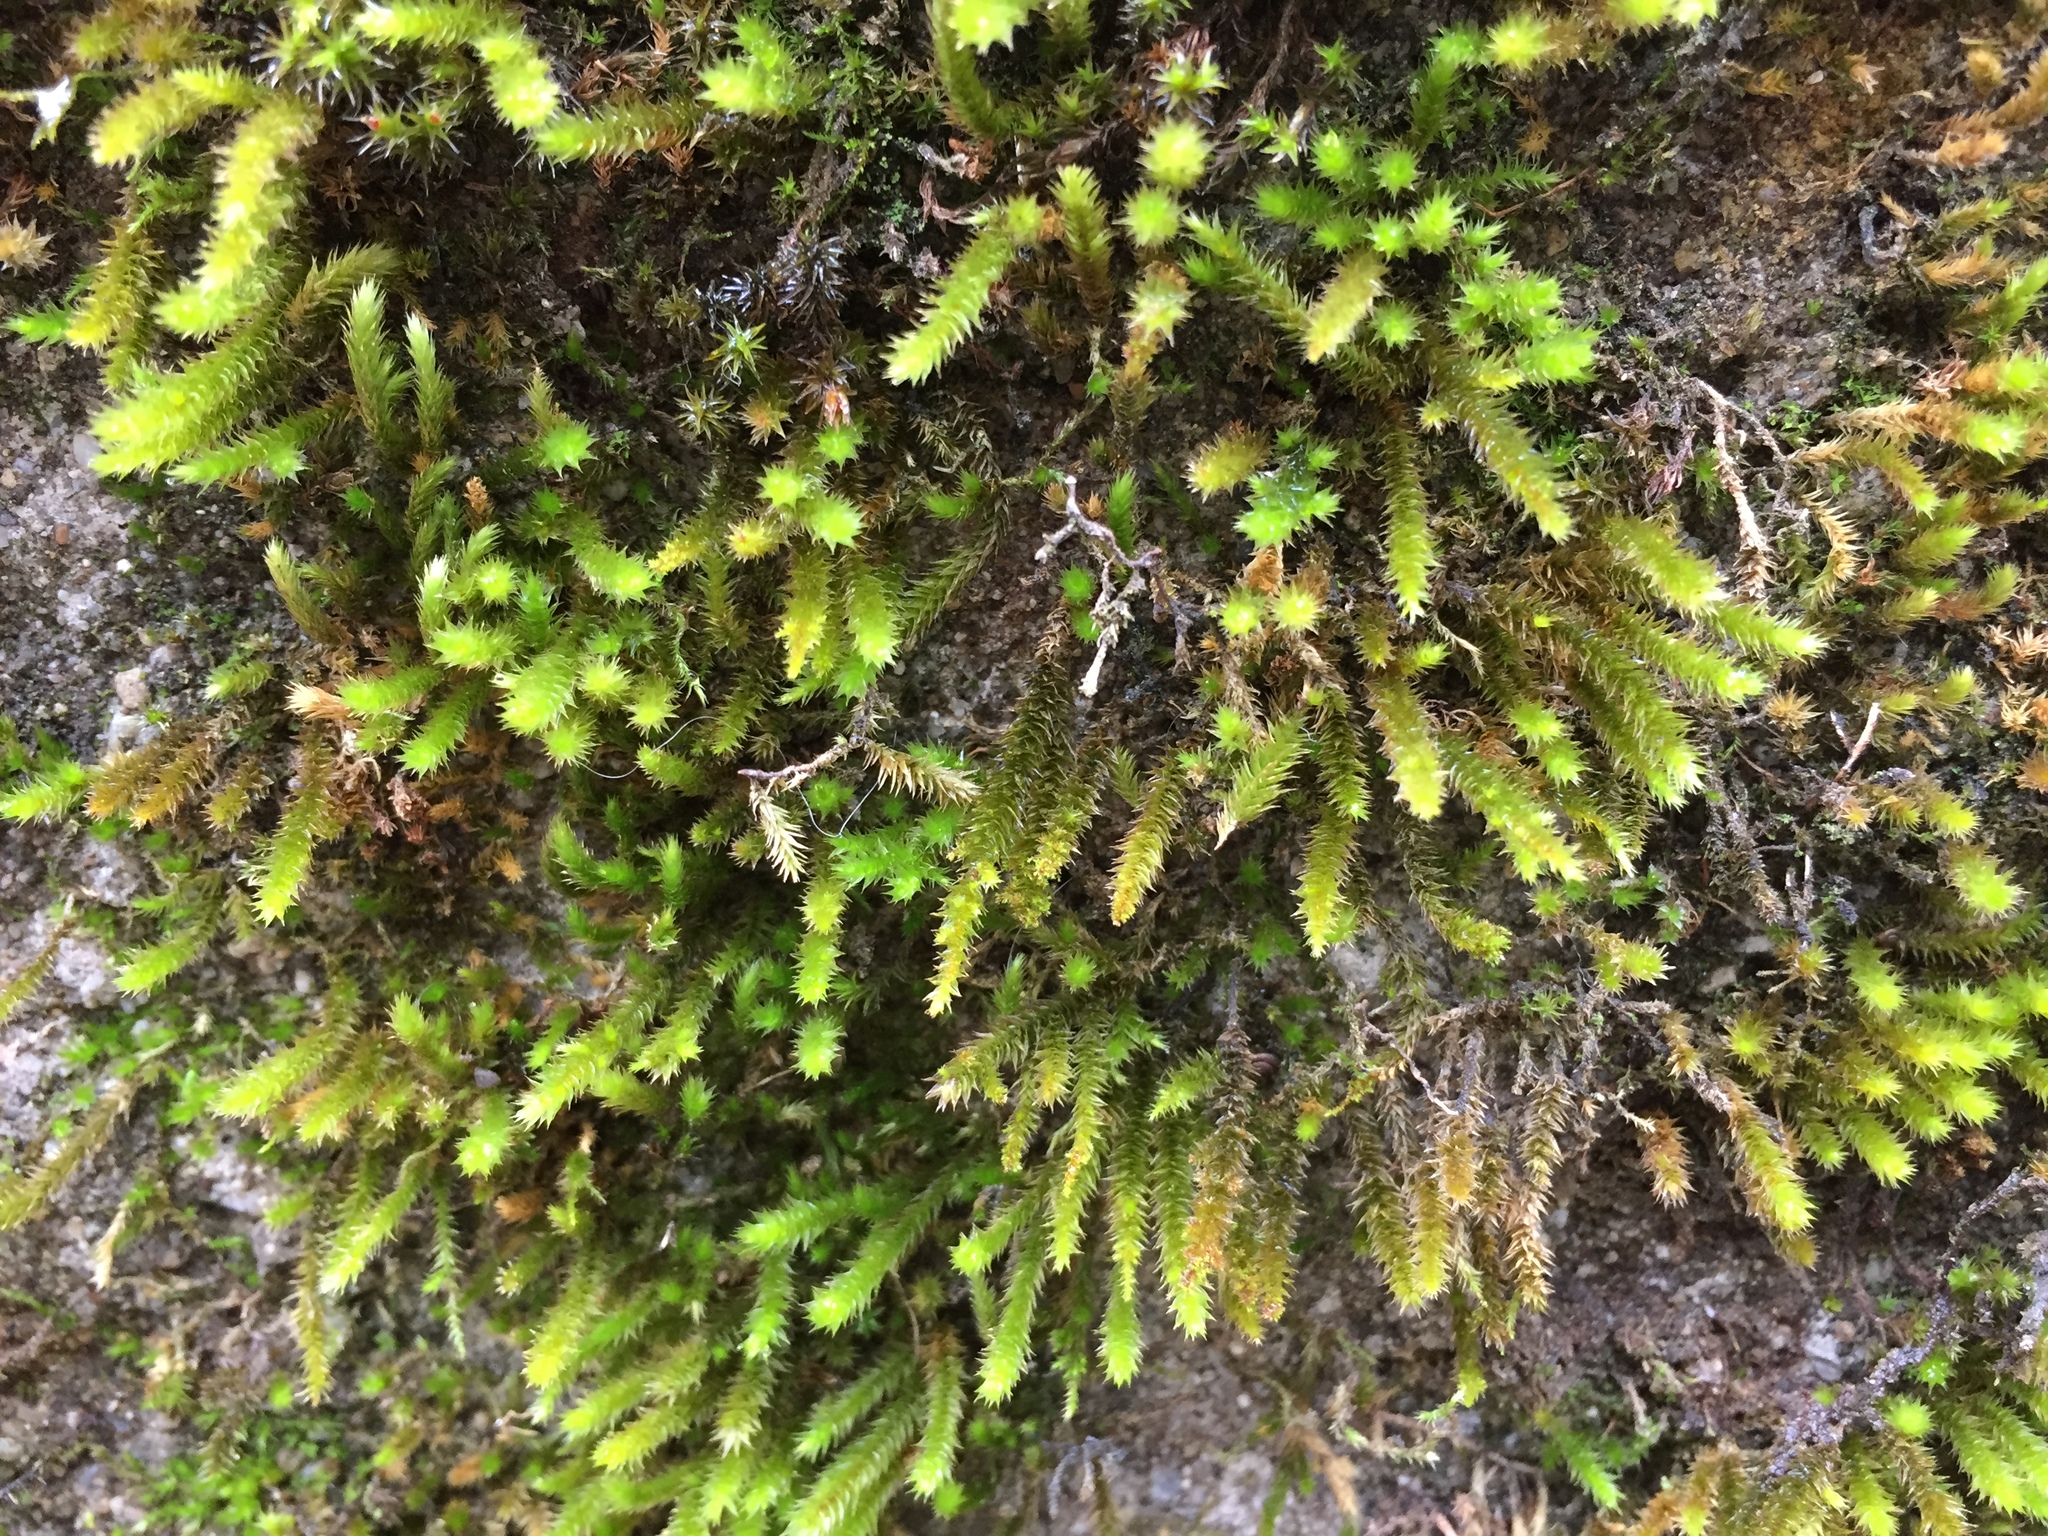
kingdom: Plantae
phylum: Bryophyta
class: Bryopsida
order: Hypnales
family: Leucodontaceae
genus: Leucodon
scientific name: Leucodon sciuroides
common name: Squirrel-tail moss
